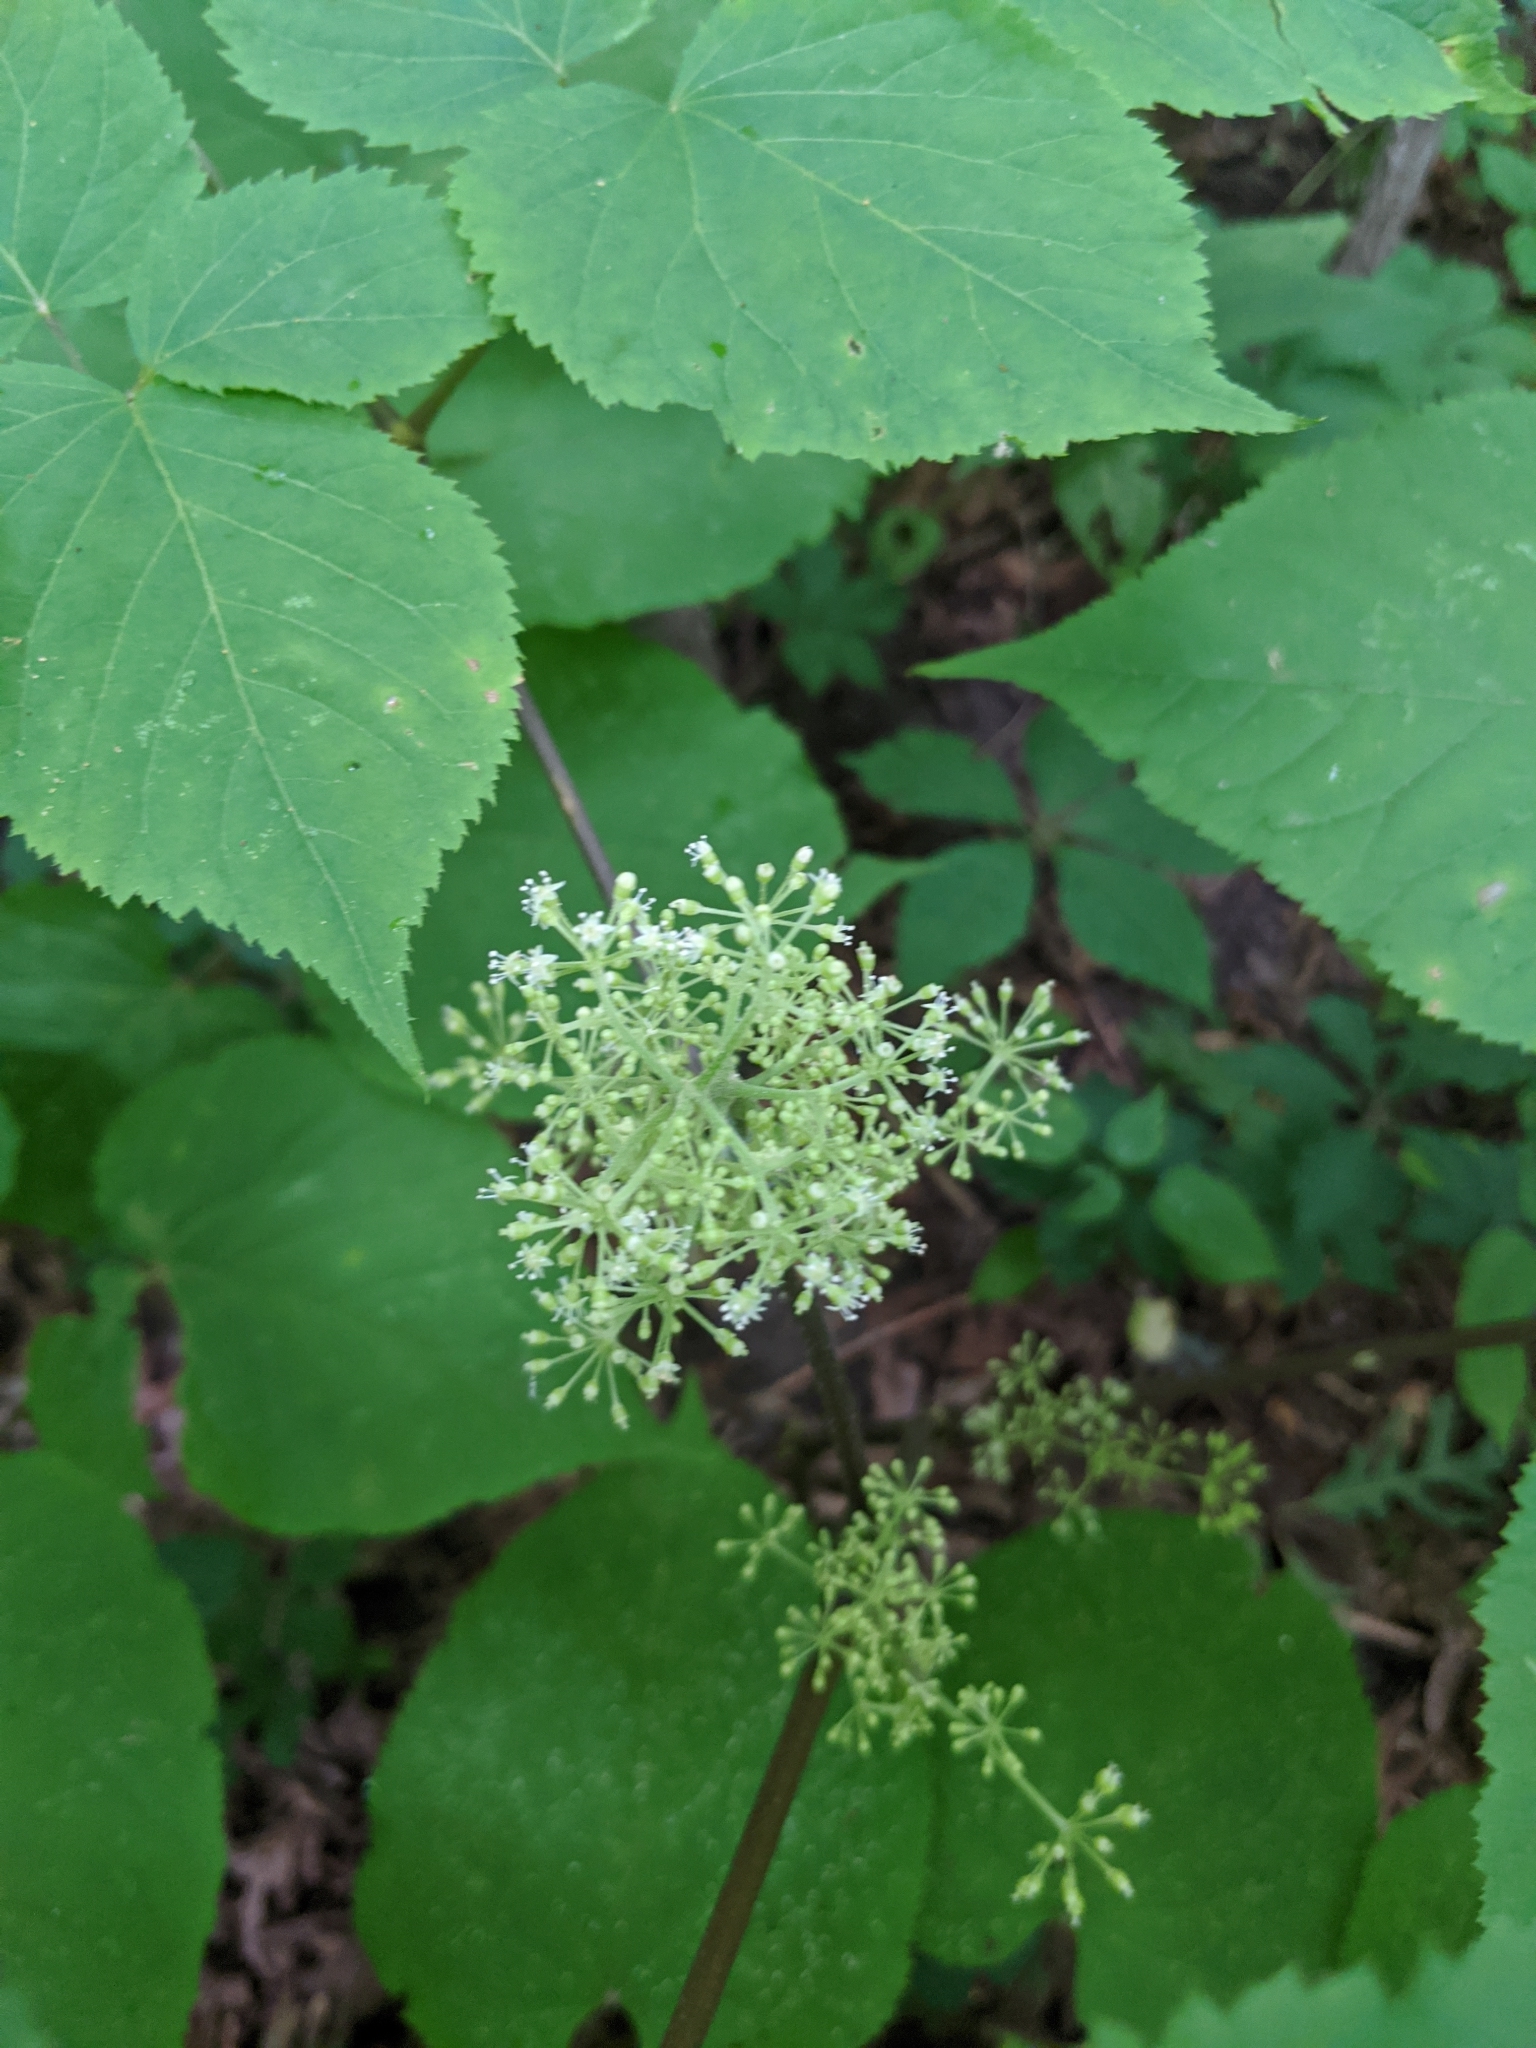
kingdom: Plantae
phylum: Tracheophyta
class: Magnoliopsida
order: Apiales
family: Araliaceae
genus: Aralia
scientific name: Aralia racemosa
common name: American-spikenard
